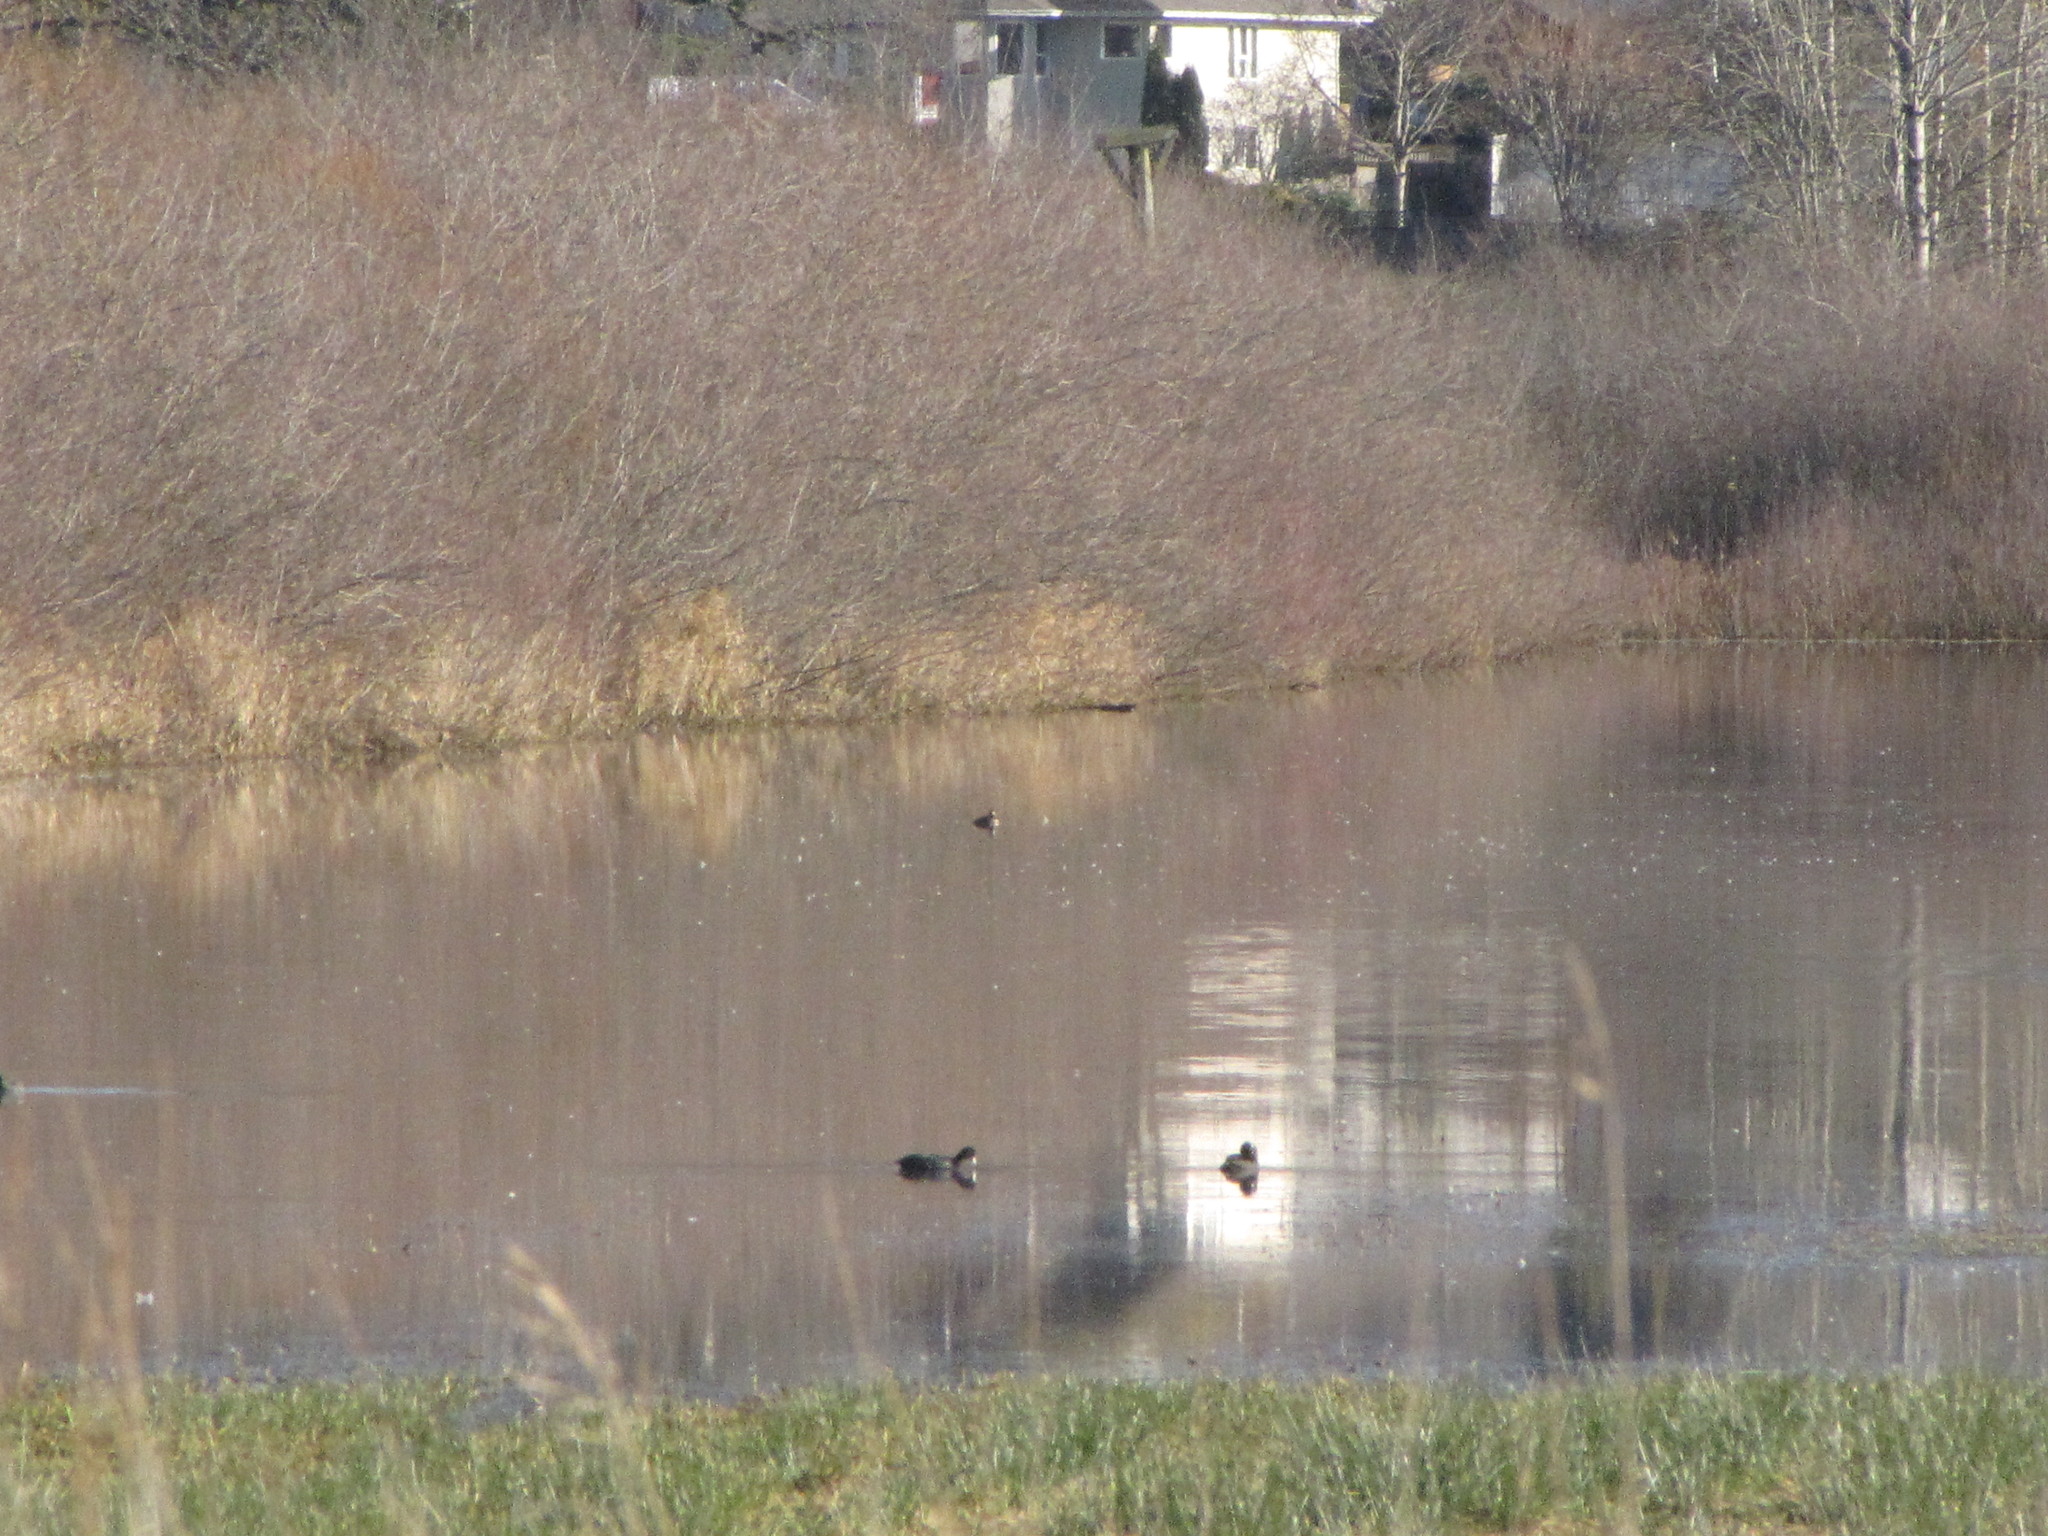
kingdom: Animalia
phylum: Chordata
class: Aves
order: Gruiformes
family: Rallidae
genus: Fulica
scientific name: Fulica americana
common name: American coot
